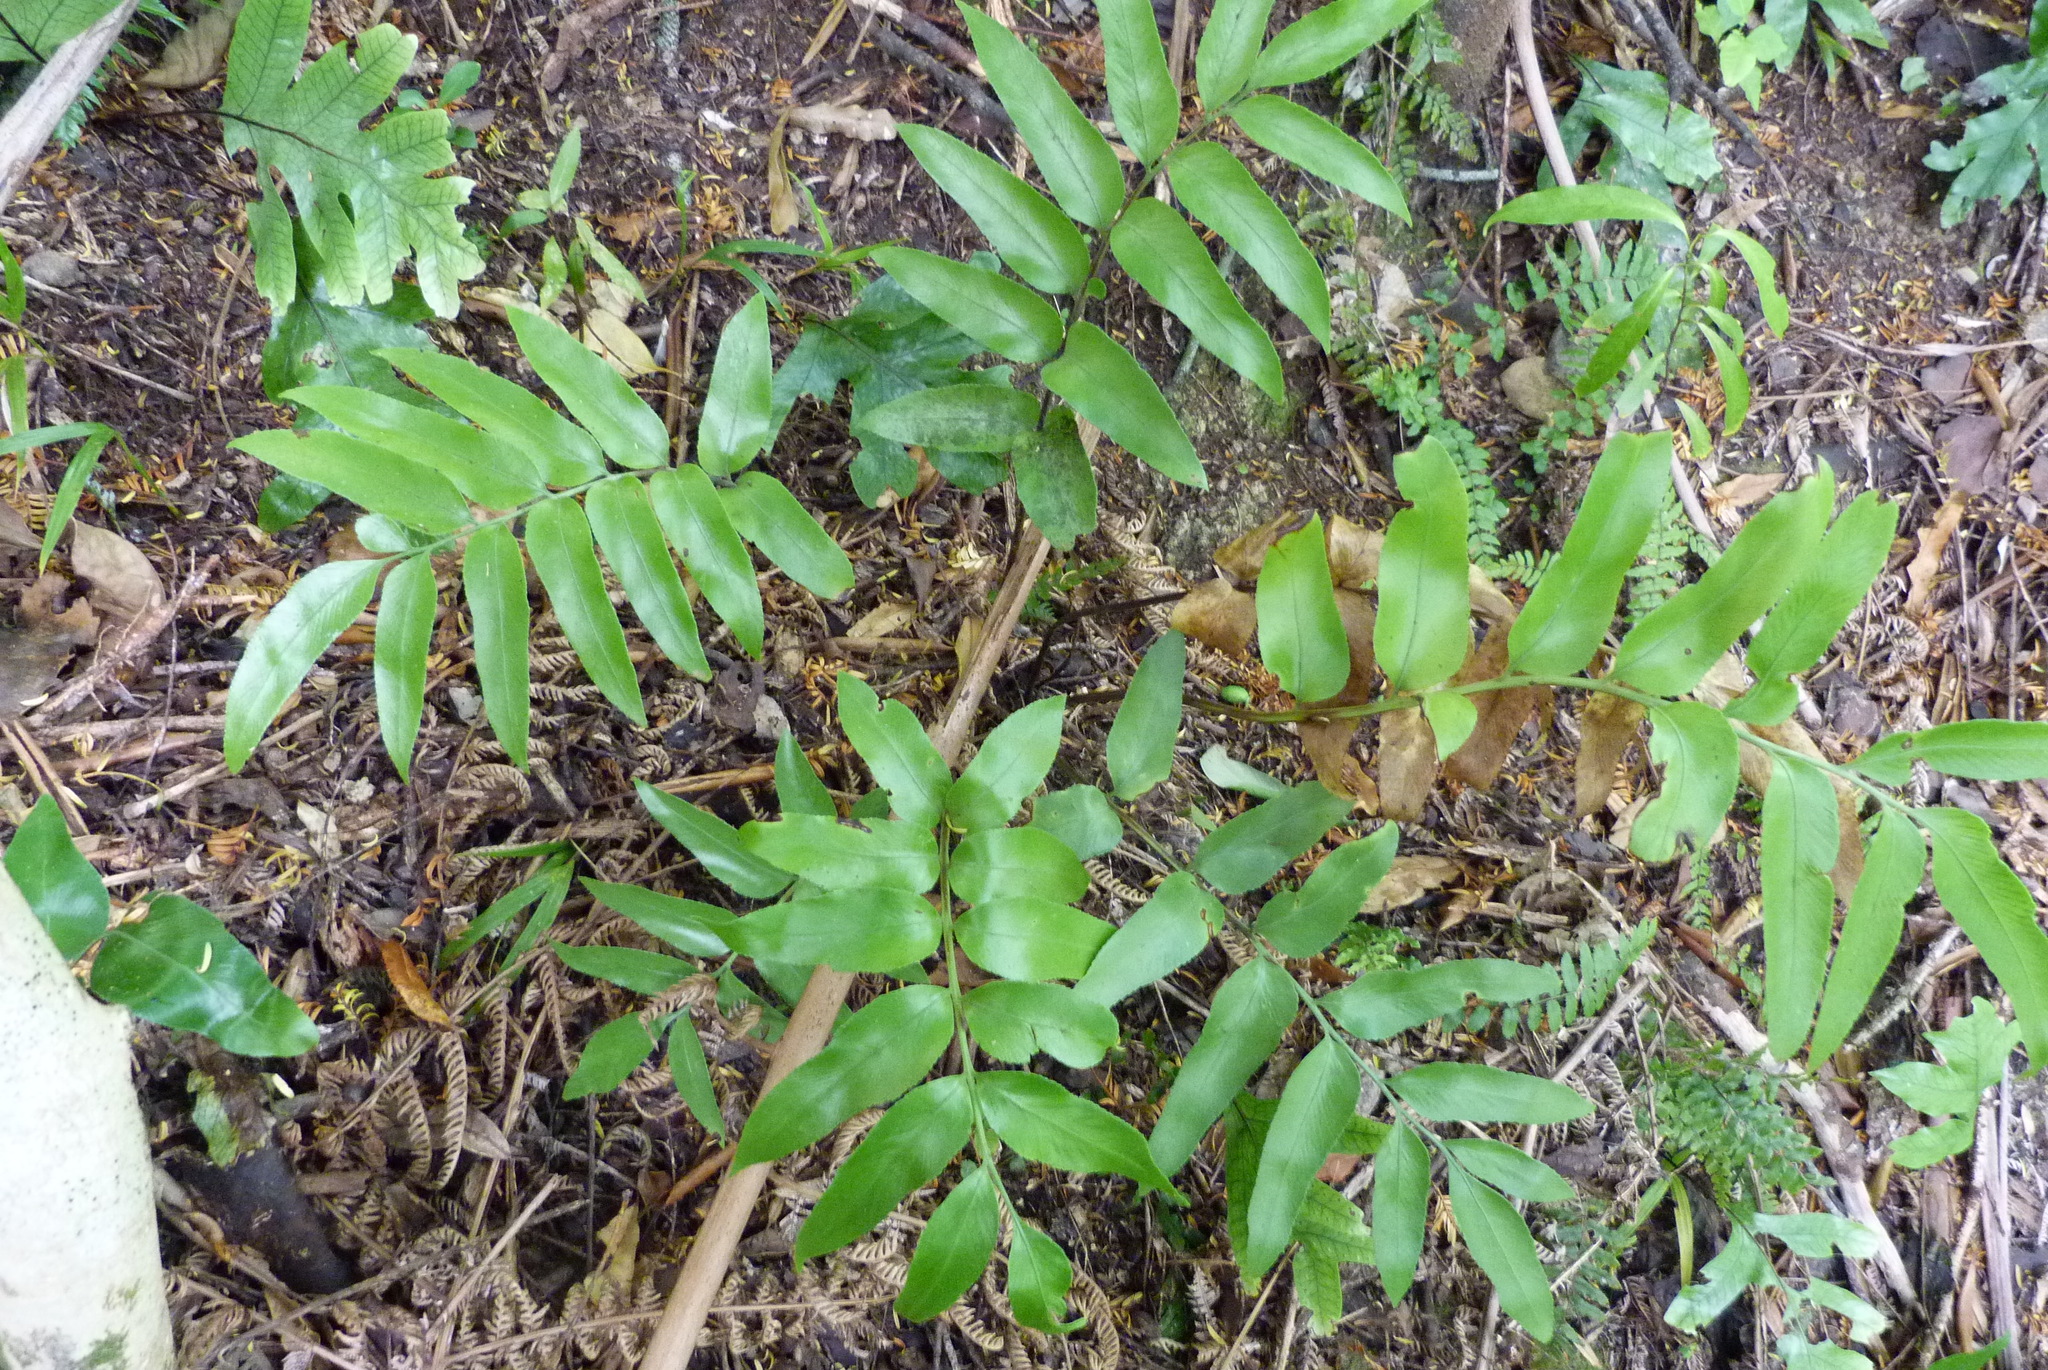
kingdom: Plantae
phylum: Tracheophyta
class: Polypodiopsida
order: Polypodiales
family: Aspleniaceae
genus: Asplenium
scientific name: Asplenium oblongifolium
